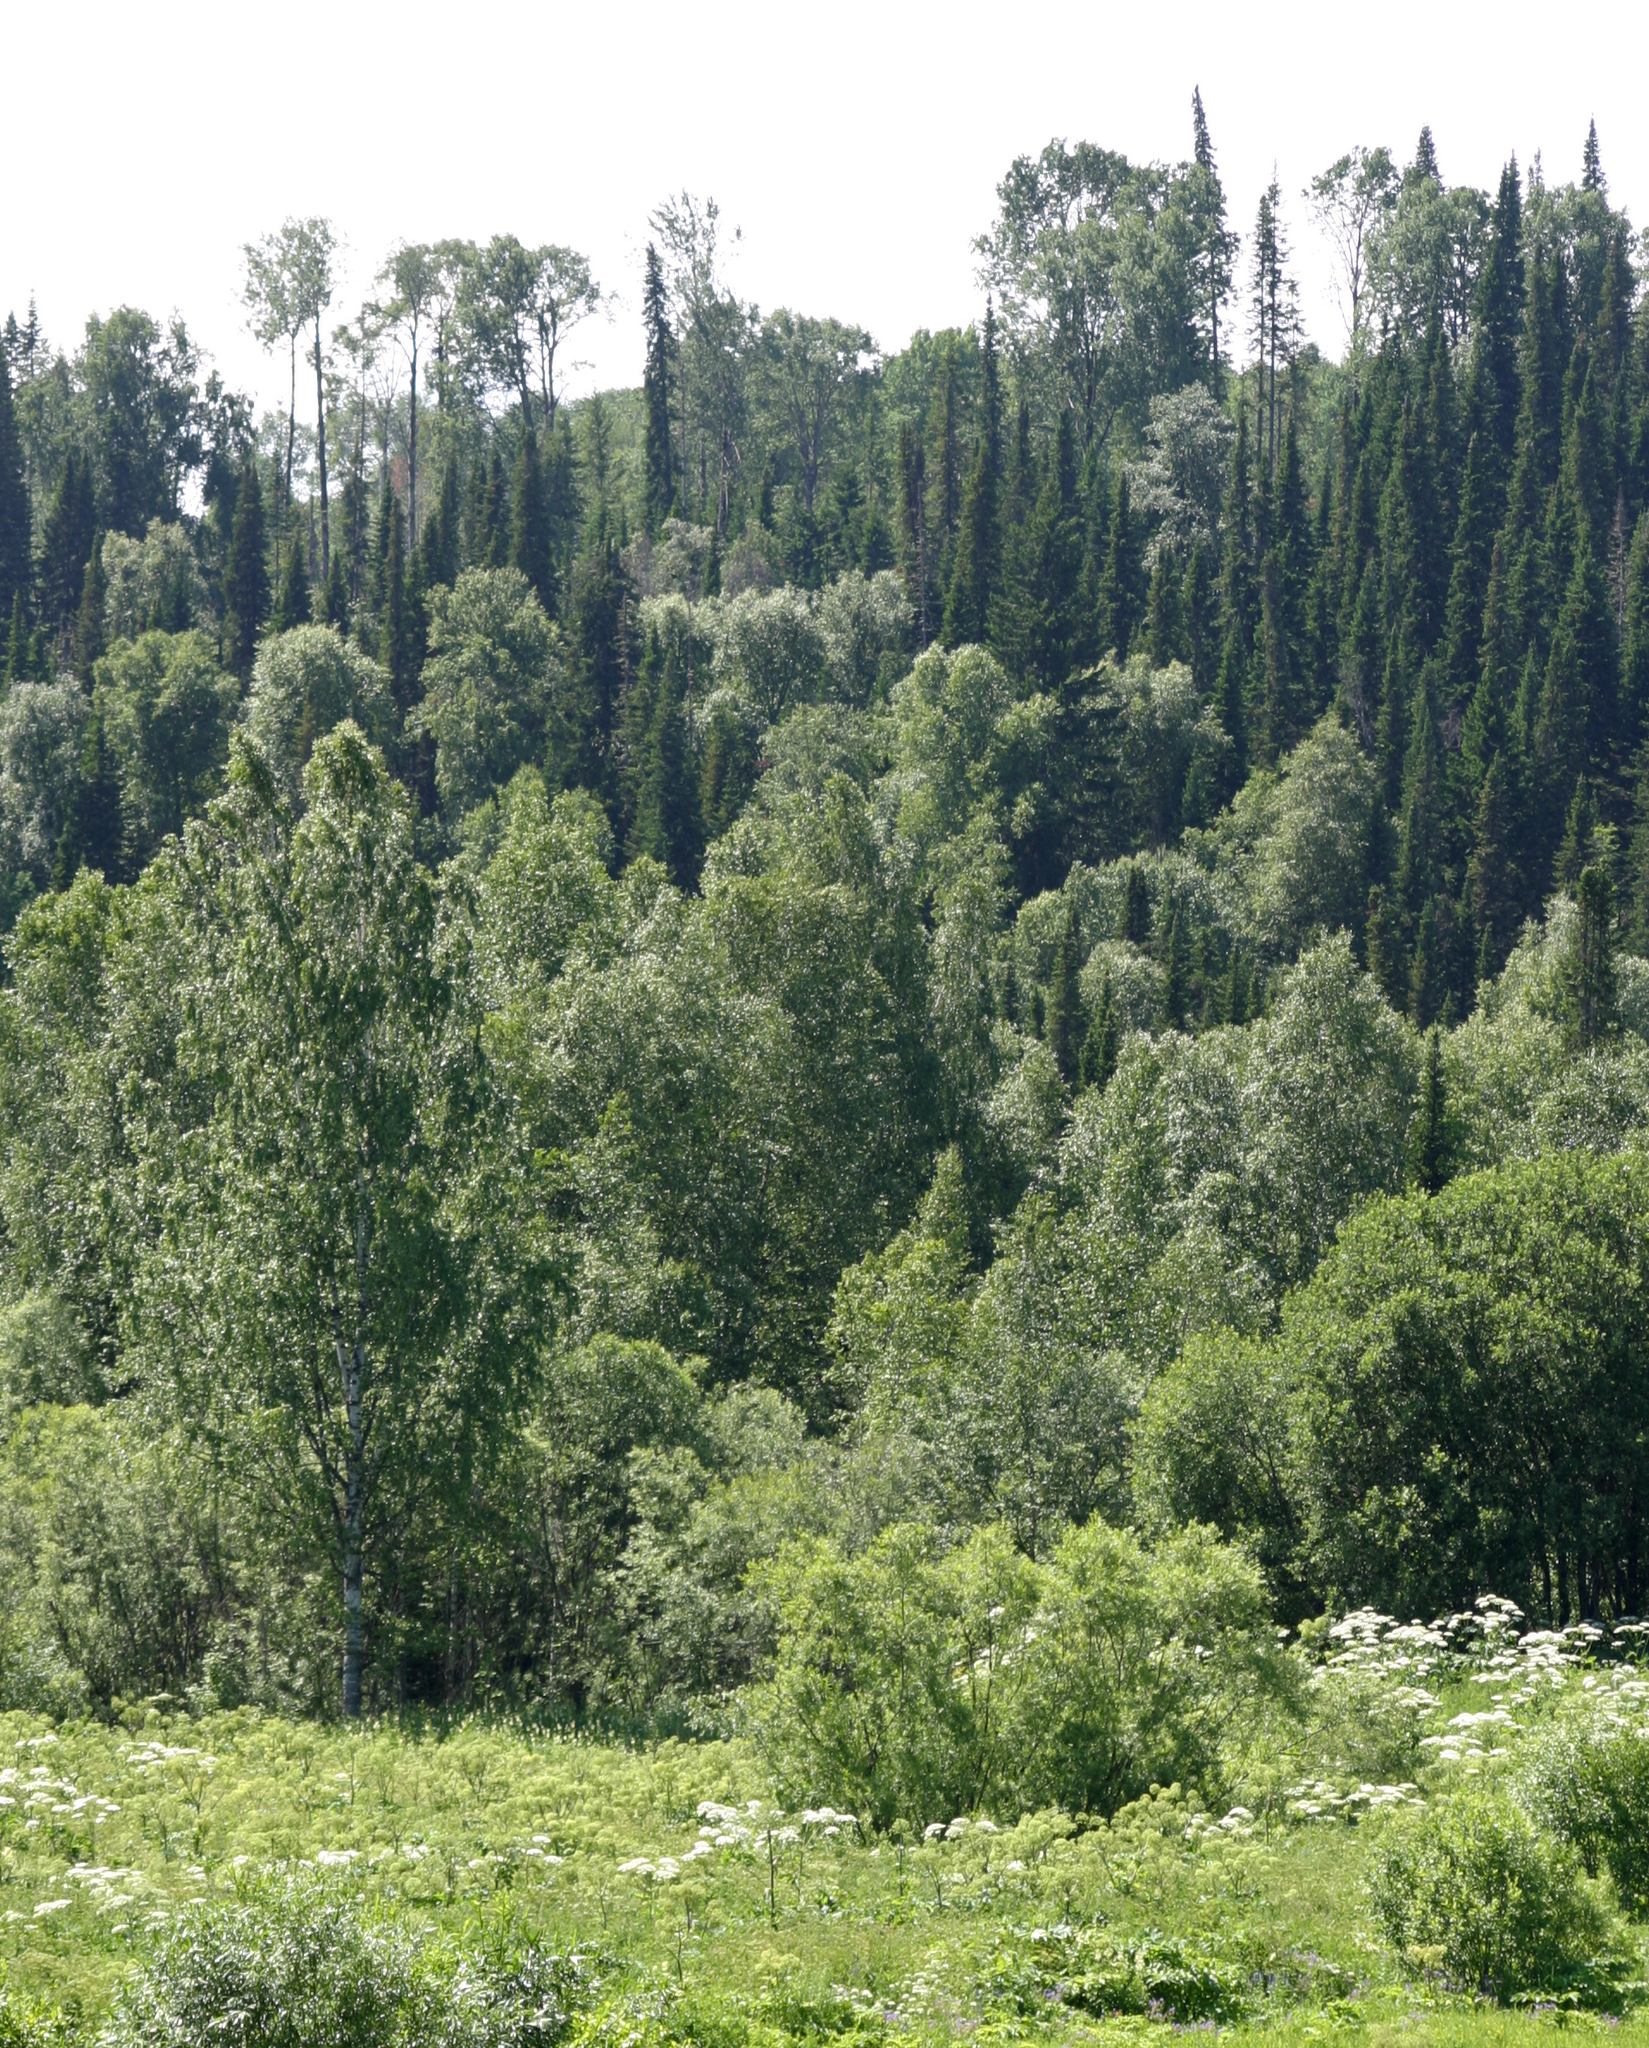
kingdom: Plantae
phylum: Tracheophyta
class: Pinopsida
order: Pinales
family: Pinaceae
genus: Abies
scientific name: Abies sibirica
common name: Siberian fir
